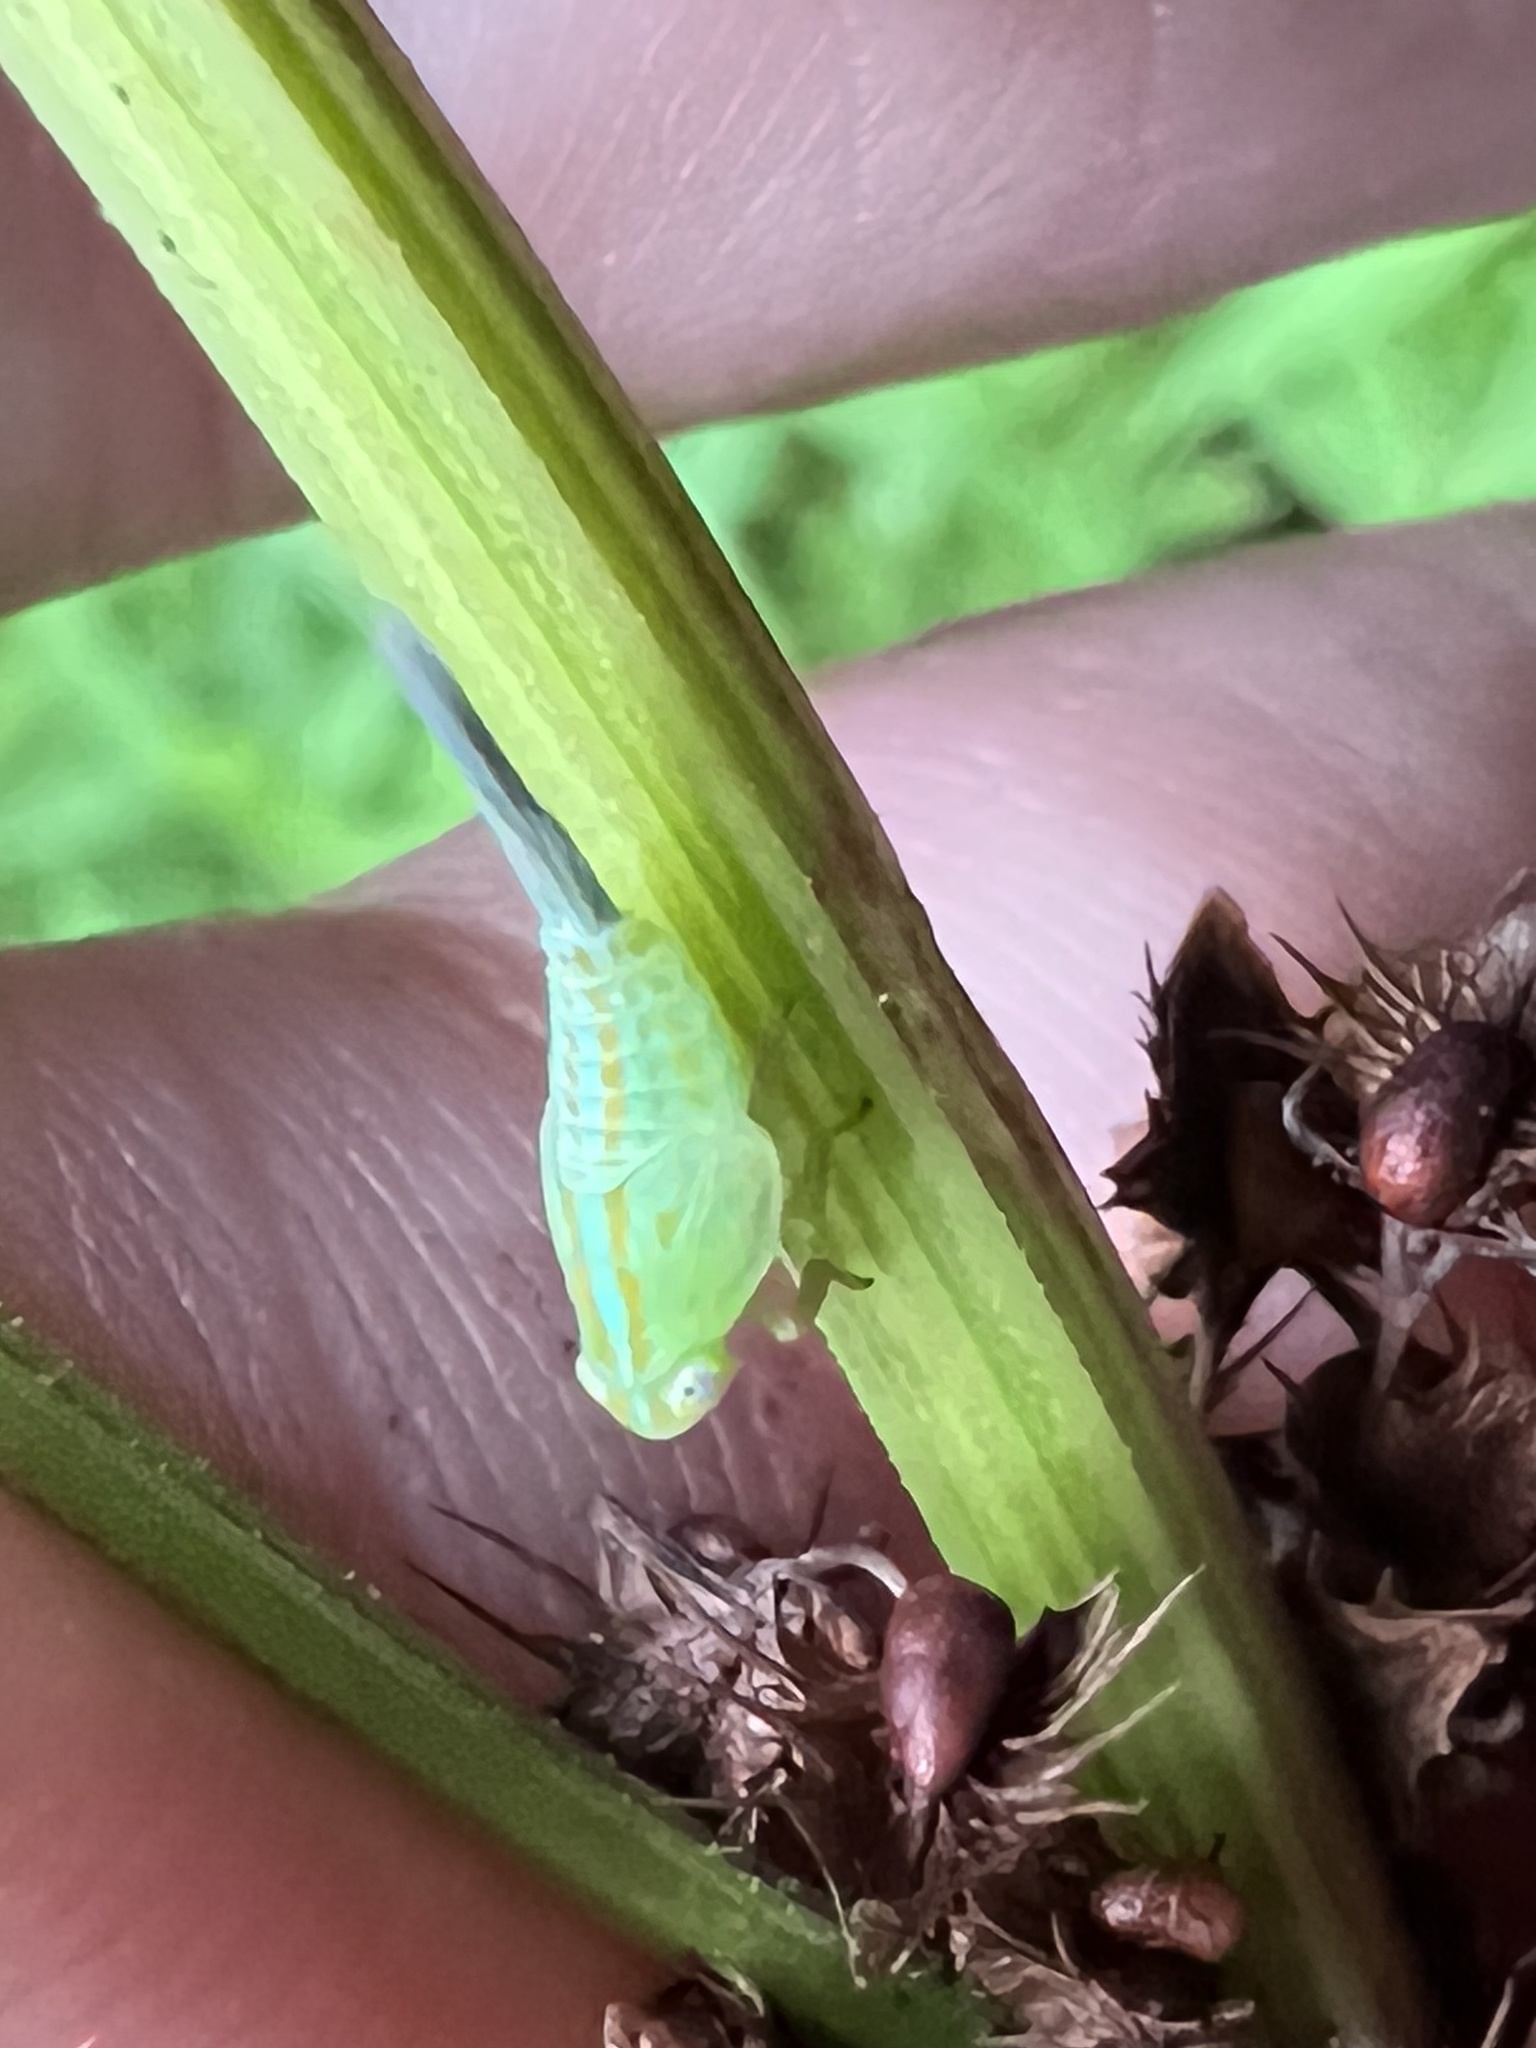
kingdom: Animalia
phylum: Arthropoda
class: Insecta
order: Hemiptera
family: Issidae
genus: Aplos
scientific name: Aplos simplex
